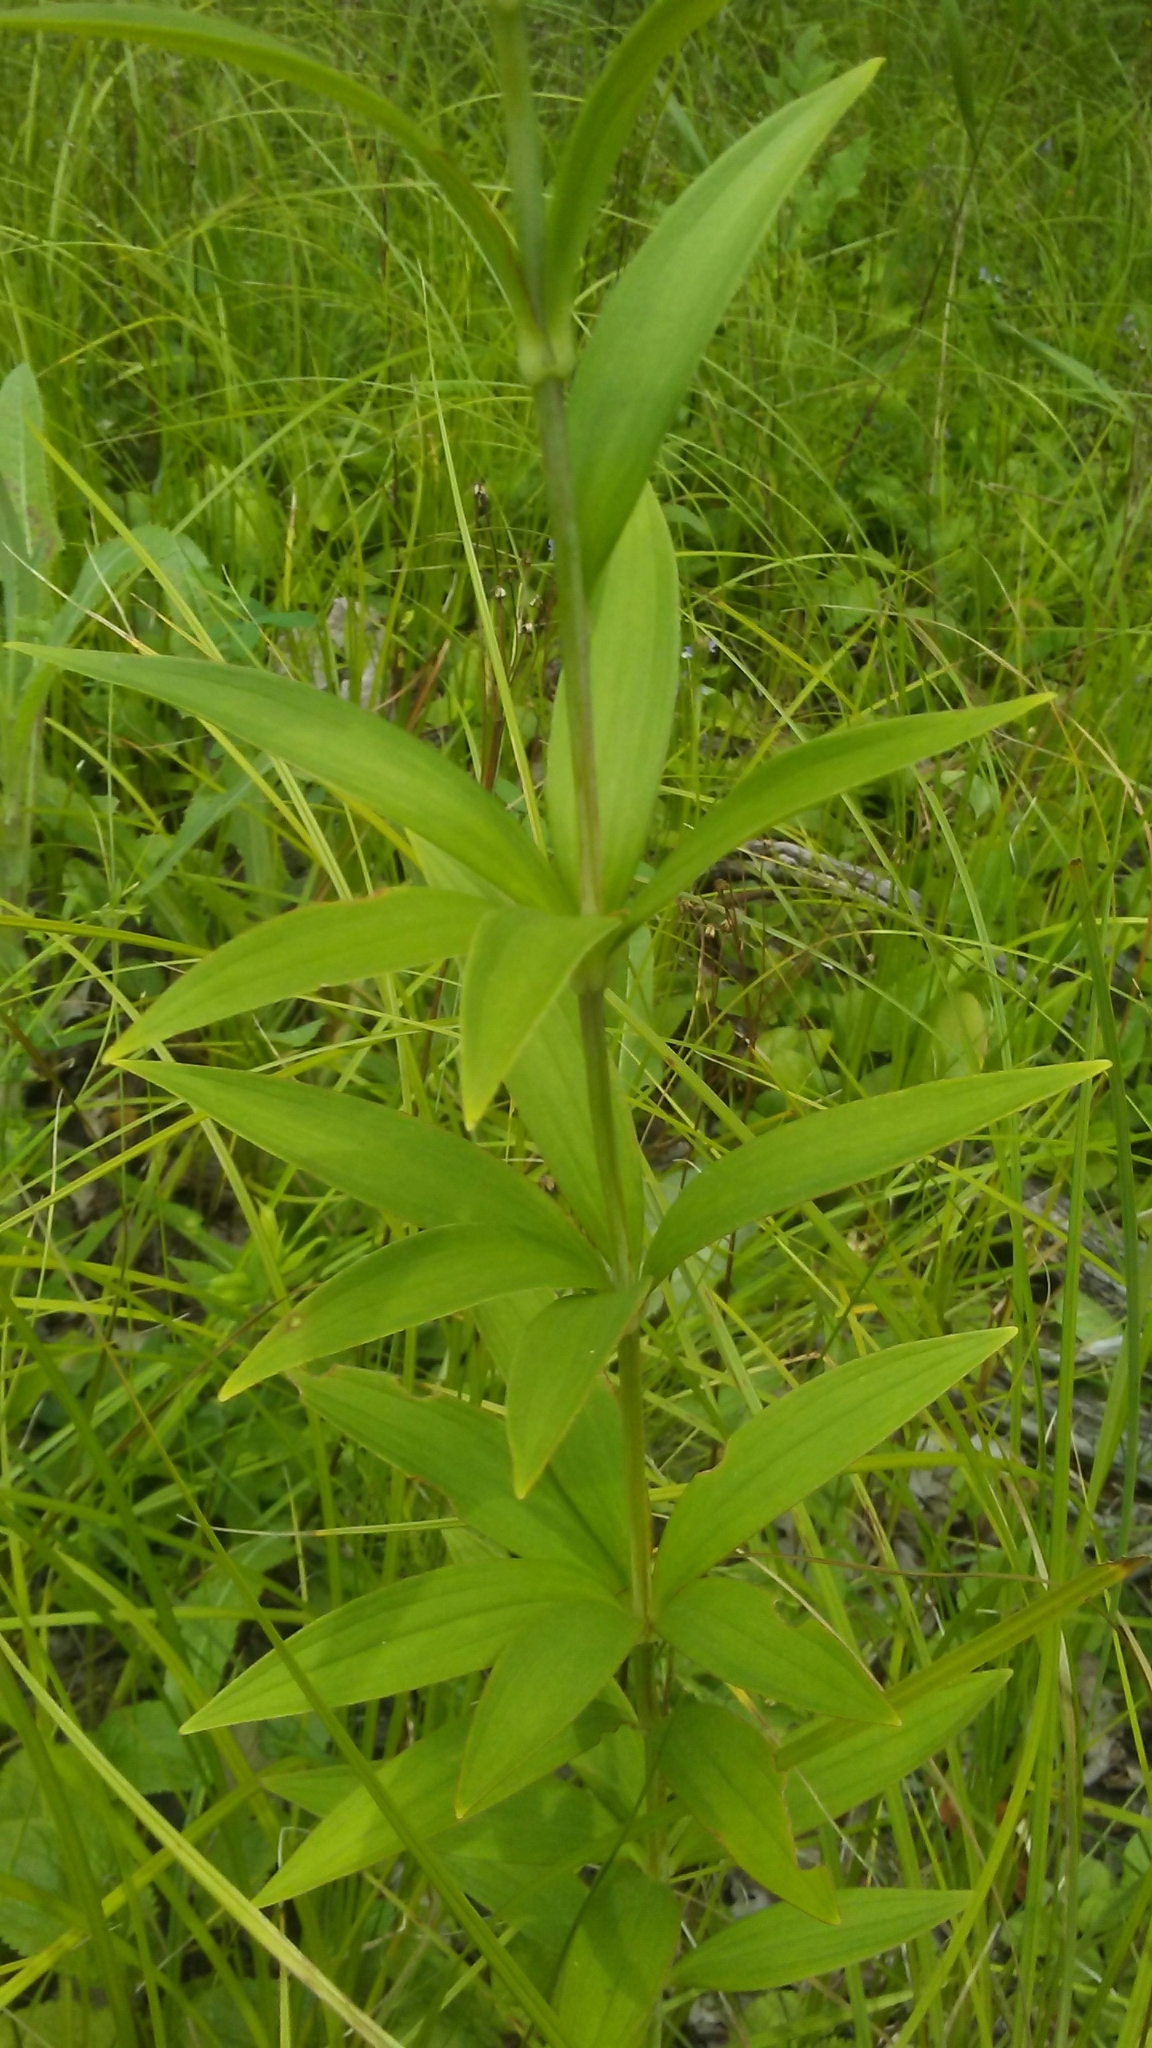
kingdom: Plantae
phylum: Tracheophyta
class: Liliopsida
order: Liliales
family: Liliaceae
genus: Lilium
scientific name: Lilium michiganense
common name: Michigan lily
